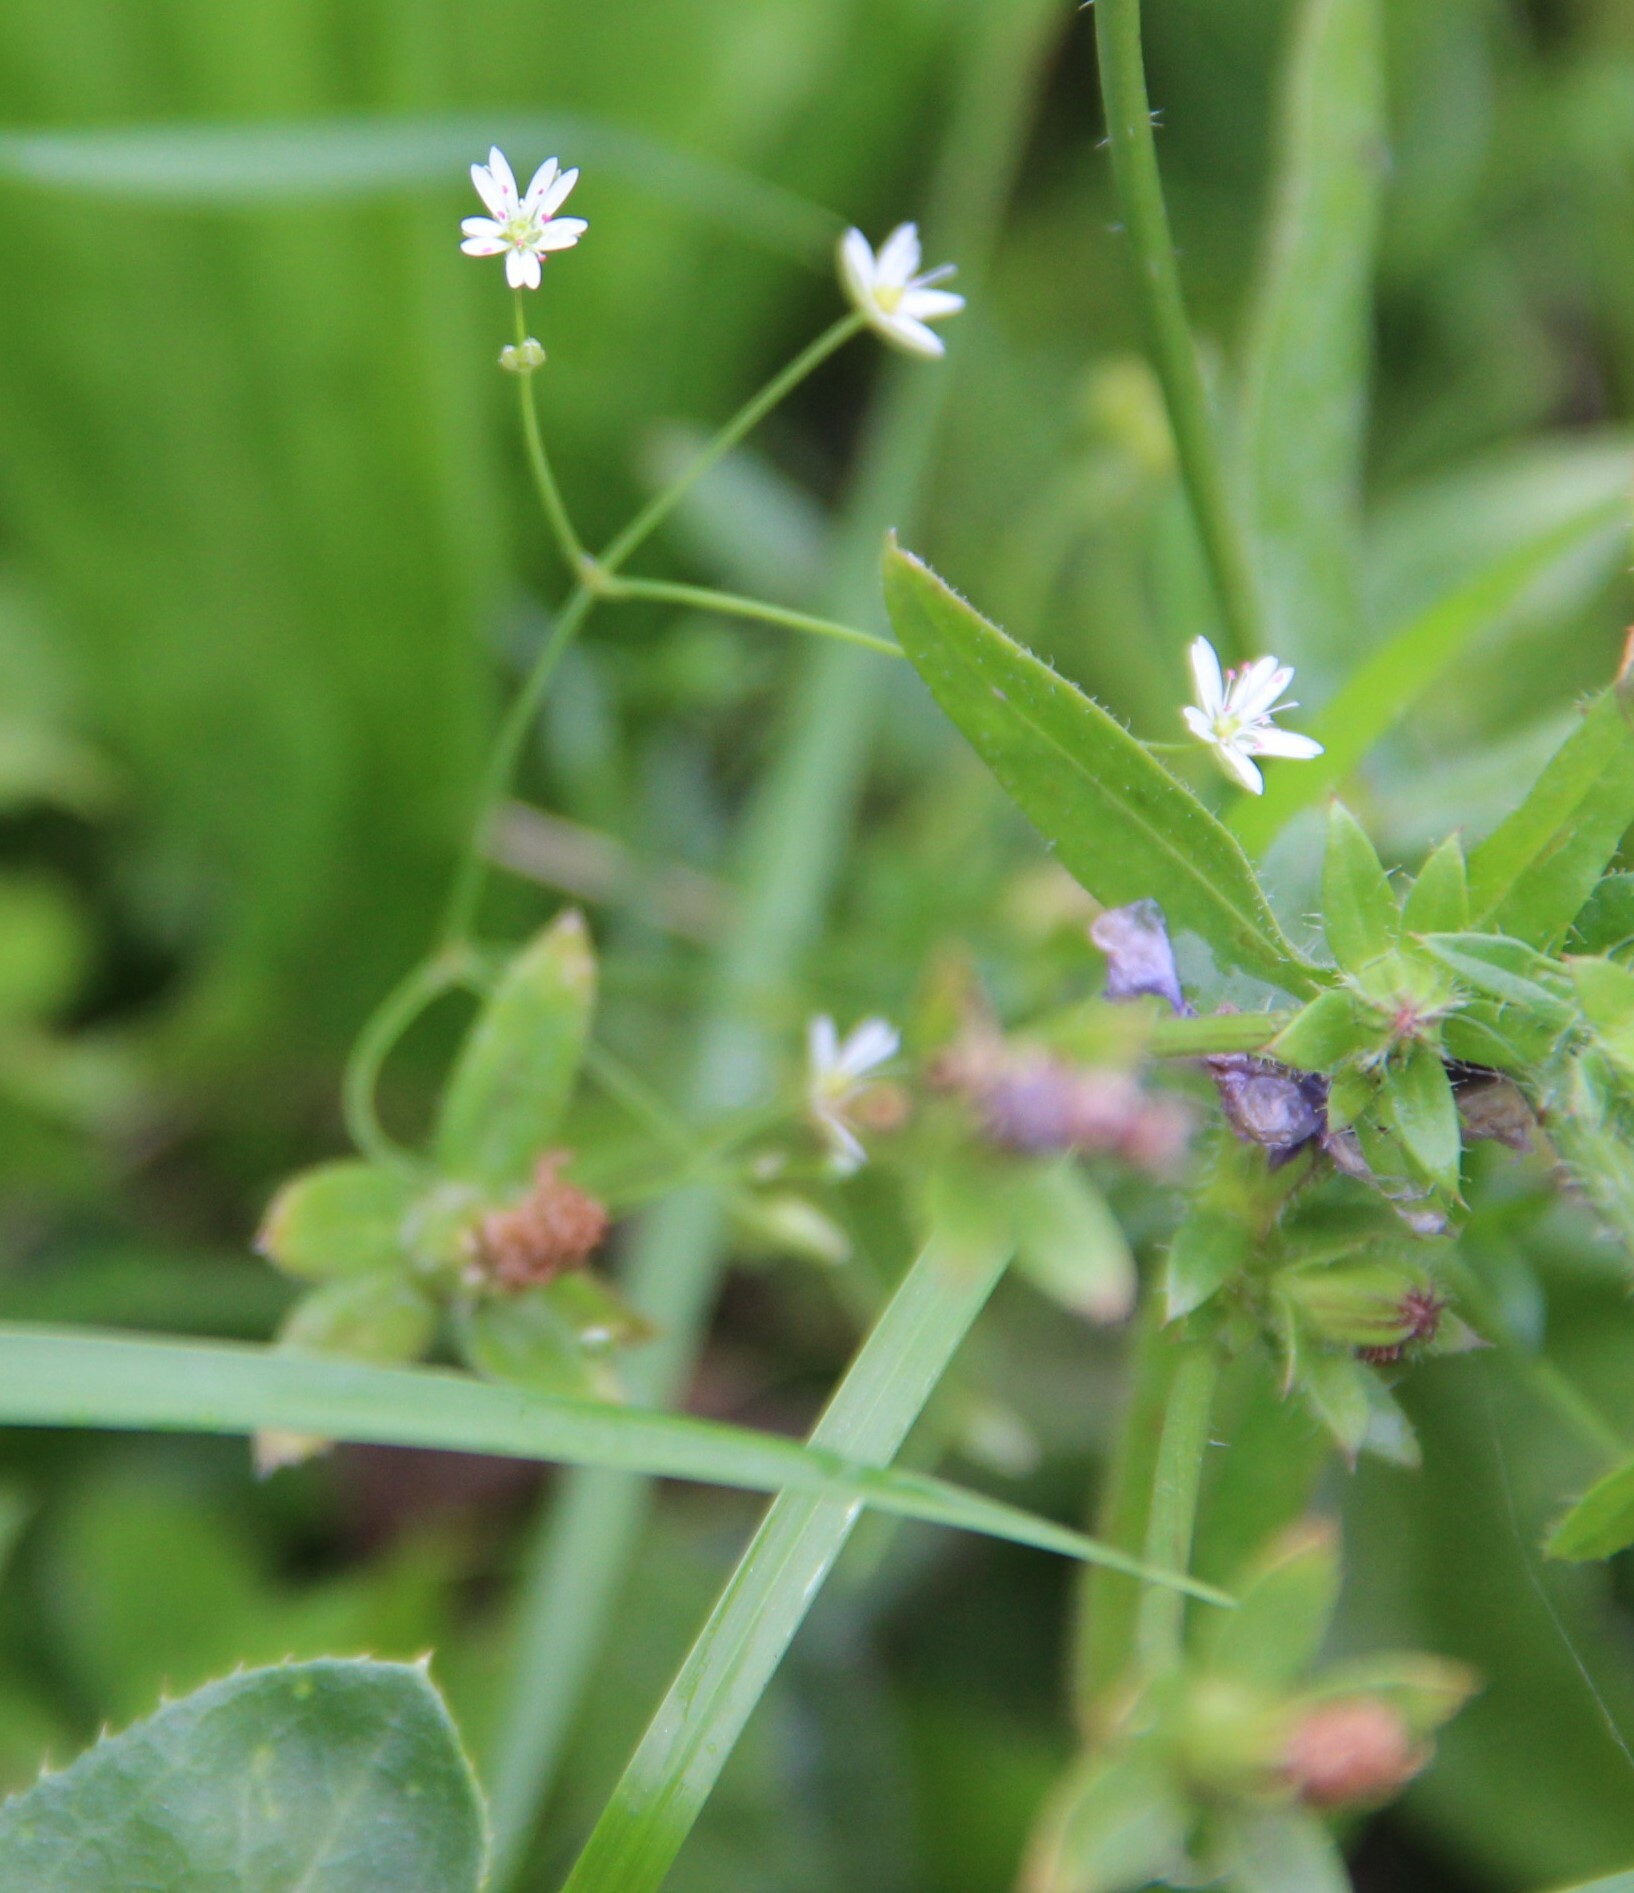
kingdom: Plantae
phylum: Tracheophyta
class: Magnoliopsida
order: Caryophyllales
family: Caryophyllaceae
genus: Stellaria
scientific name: Stellaria graminea
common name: Grass-like starwort
